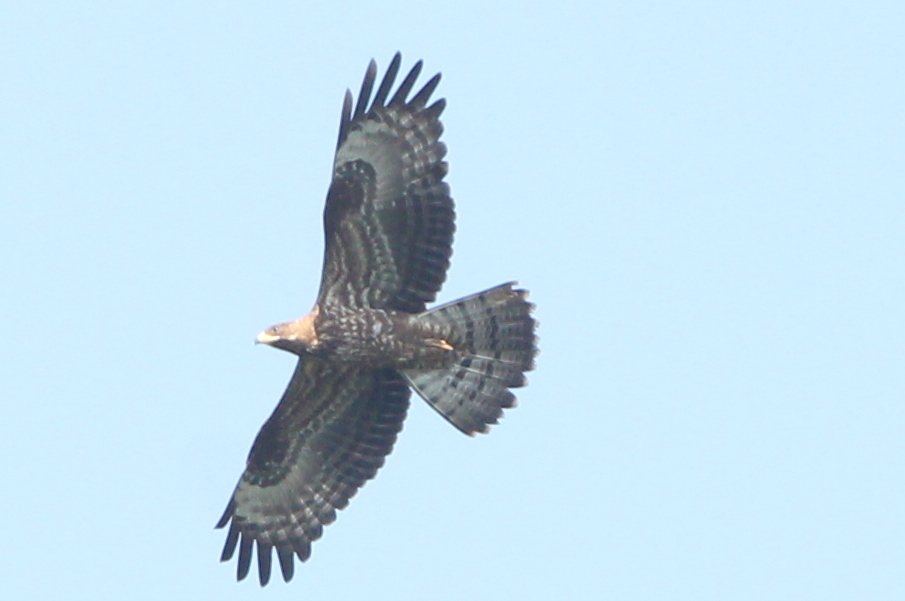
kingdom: Animalia
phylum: Chordata
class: Aves
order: Accipitriformes
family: Accipitridae
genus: Pernis
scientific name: Pernis apivorus
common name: European honey buzzard
